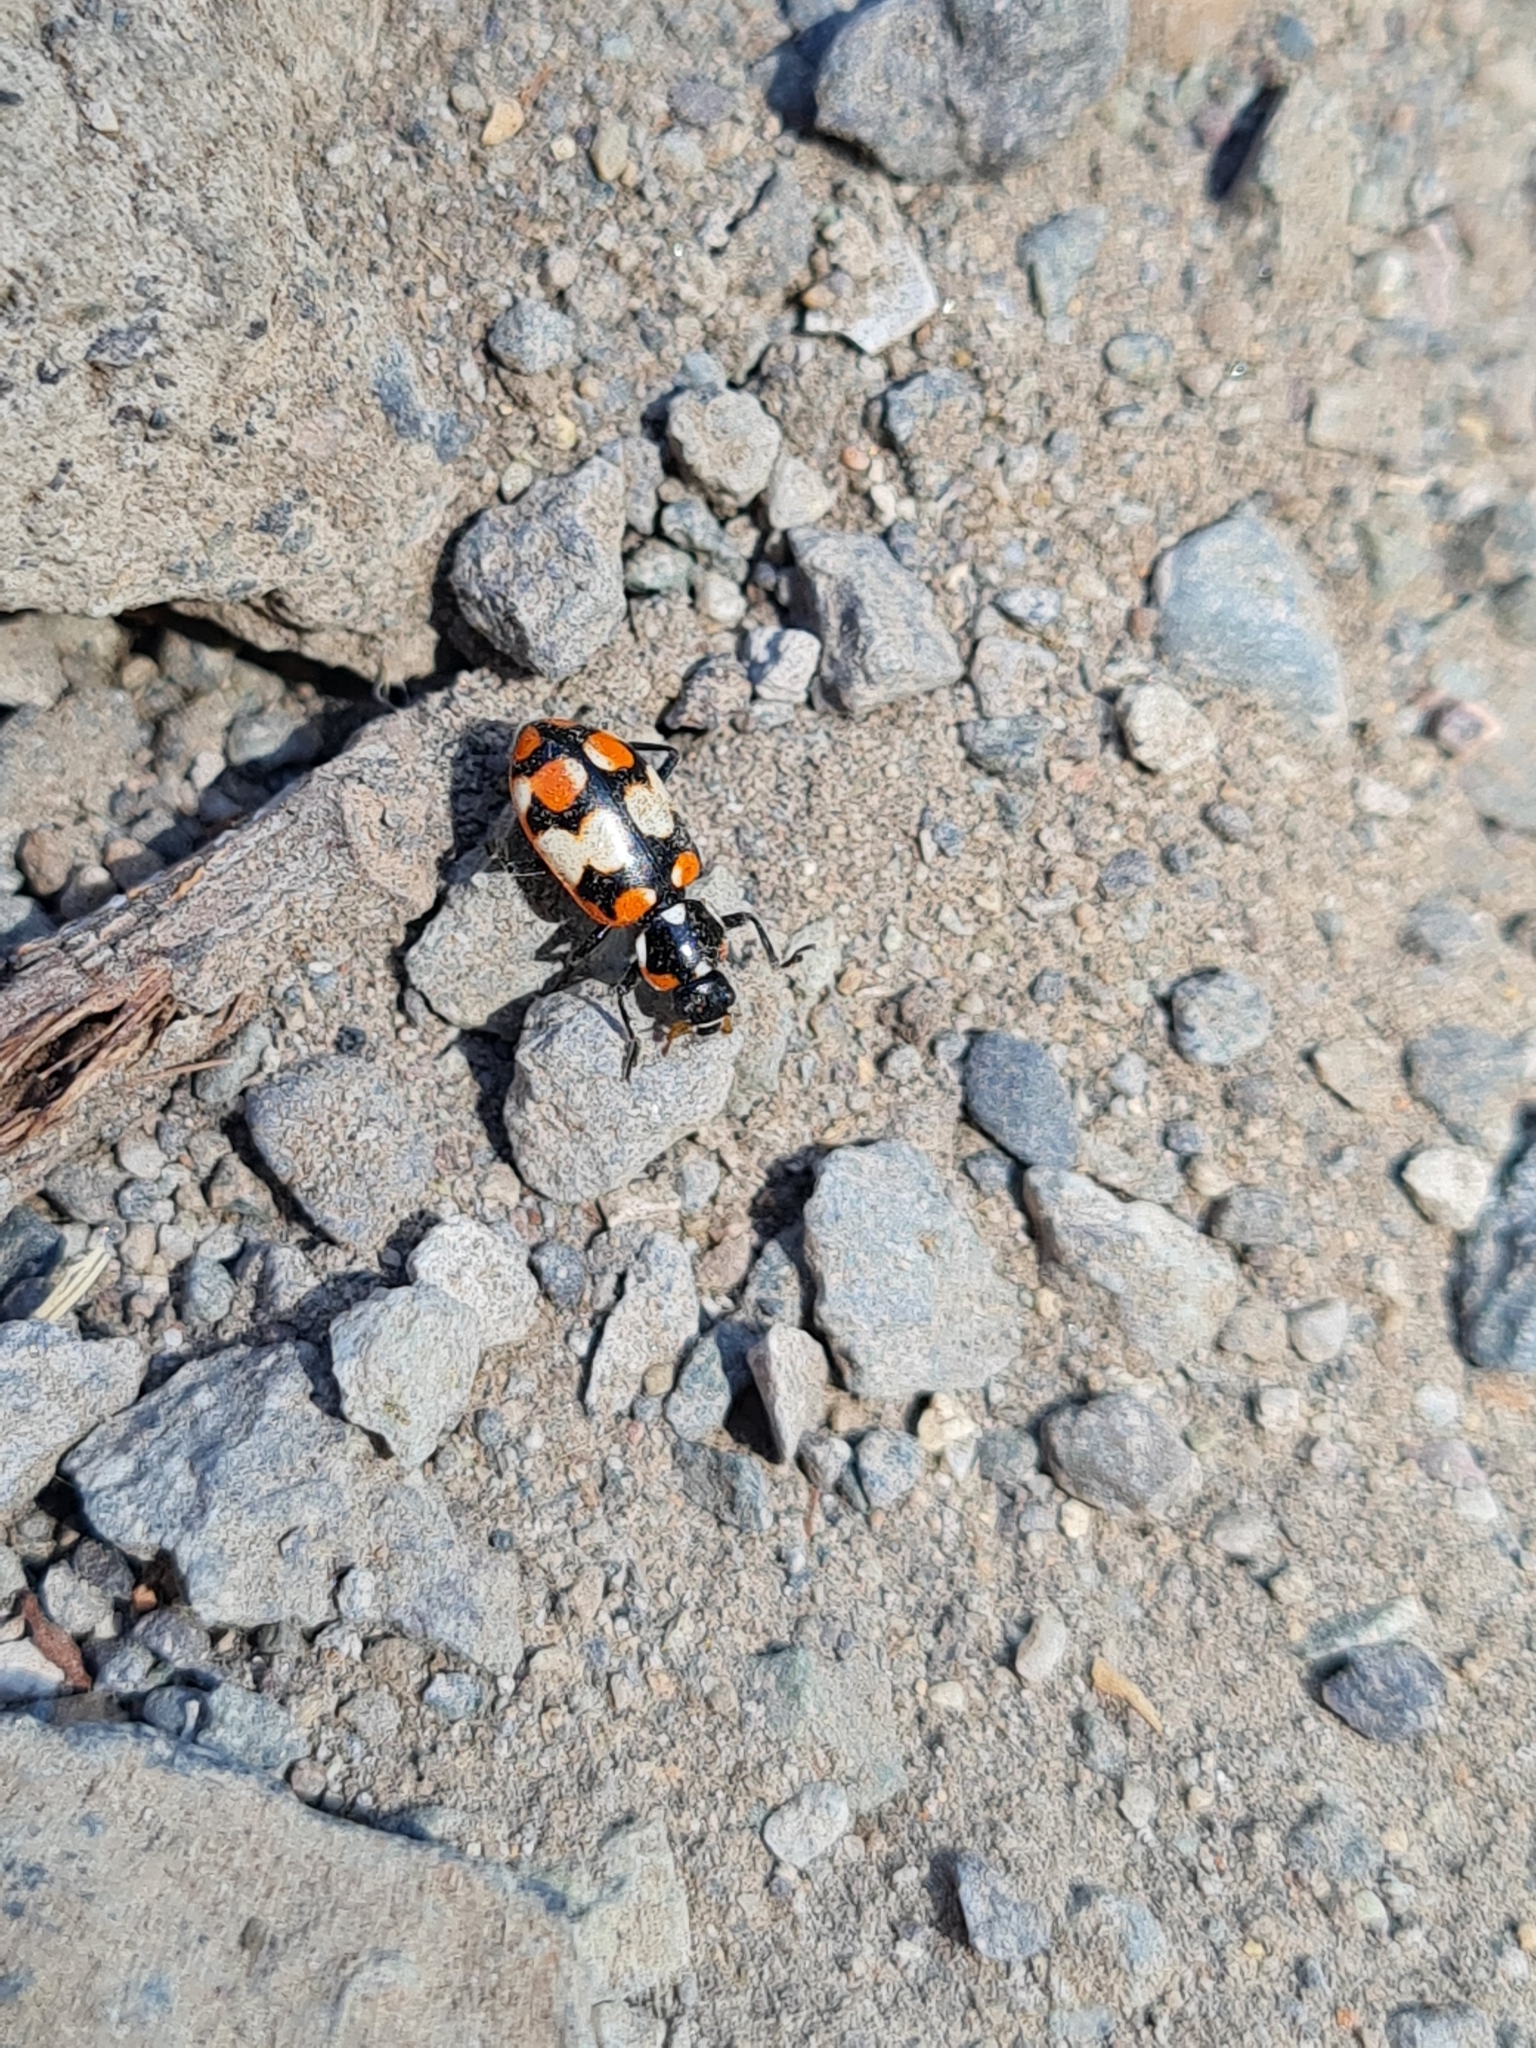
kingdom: Animalia
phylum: Arthropoda
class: Insecta
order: Coleoptera
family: Coccinellidae
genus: Eriopis
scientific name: Eriopis chilensis
